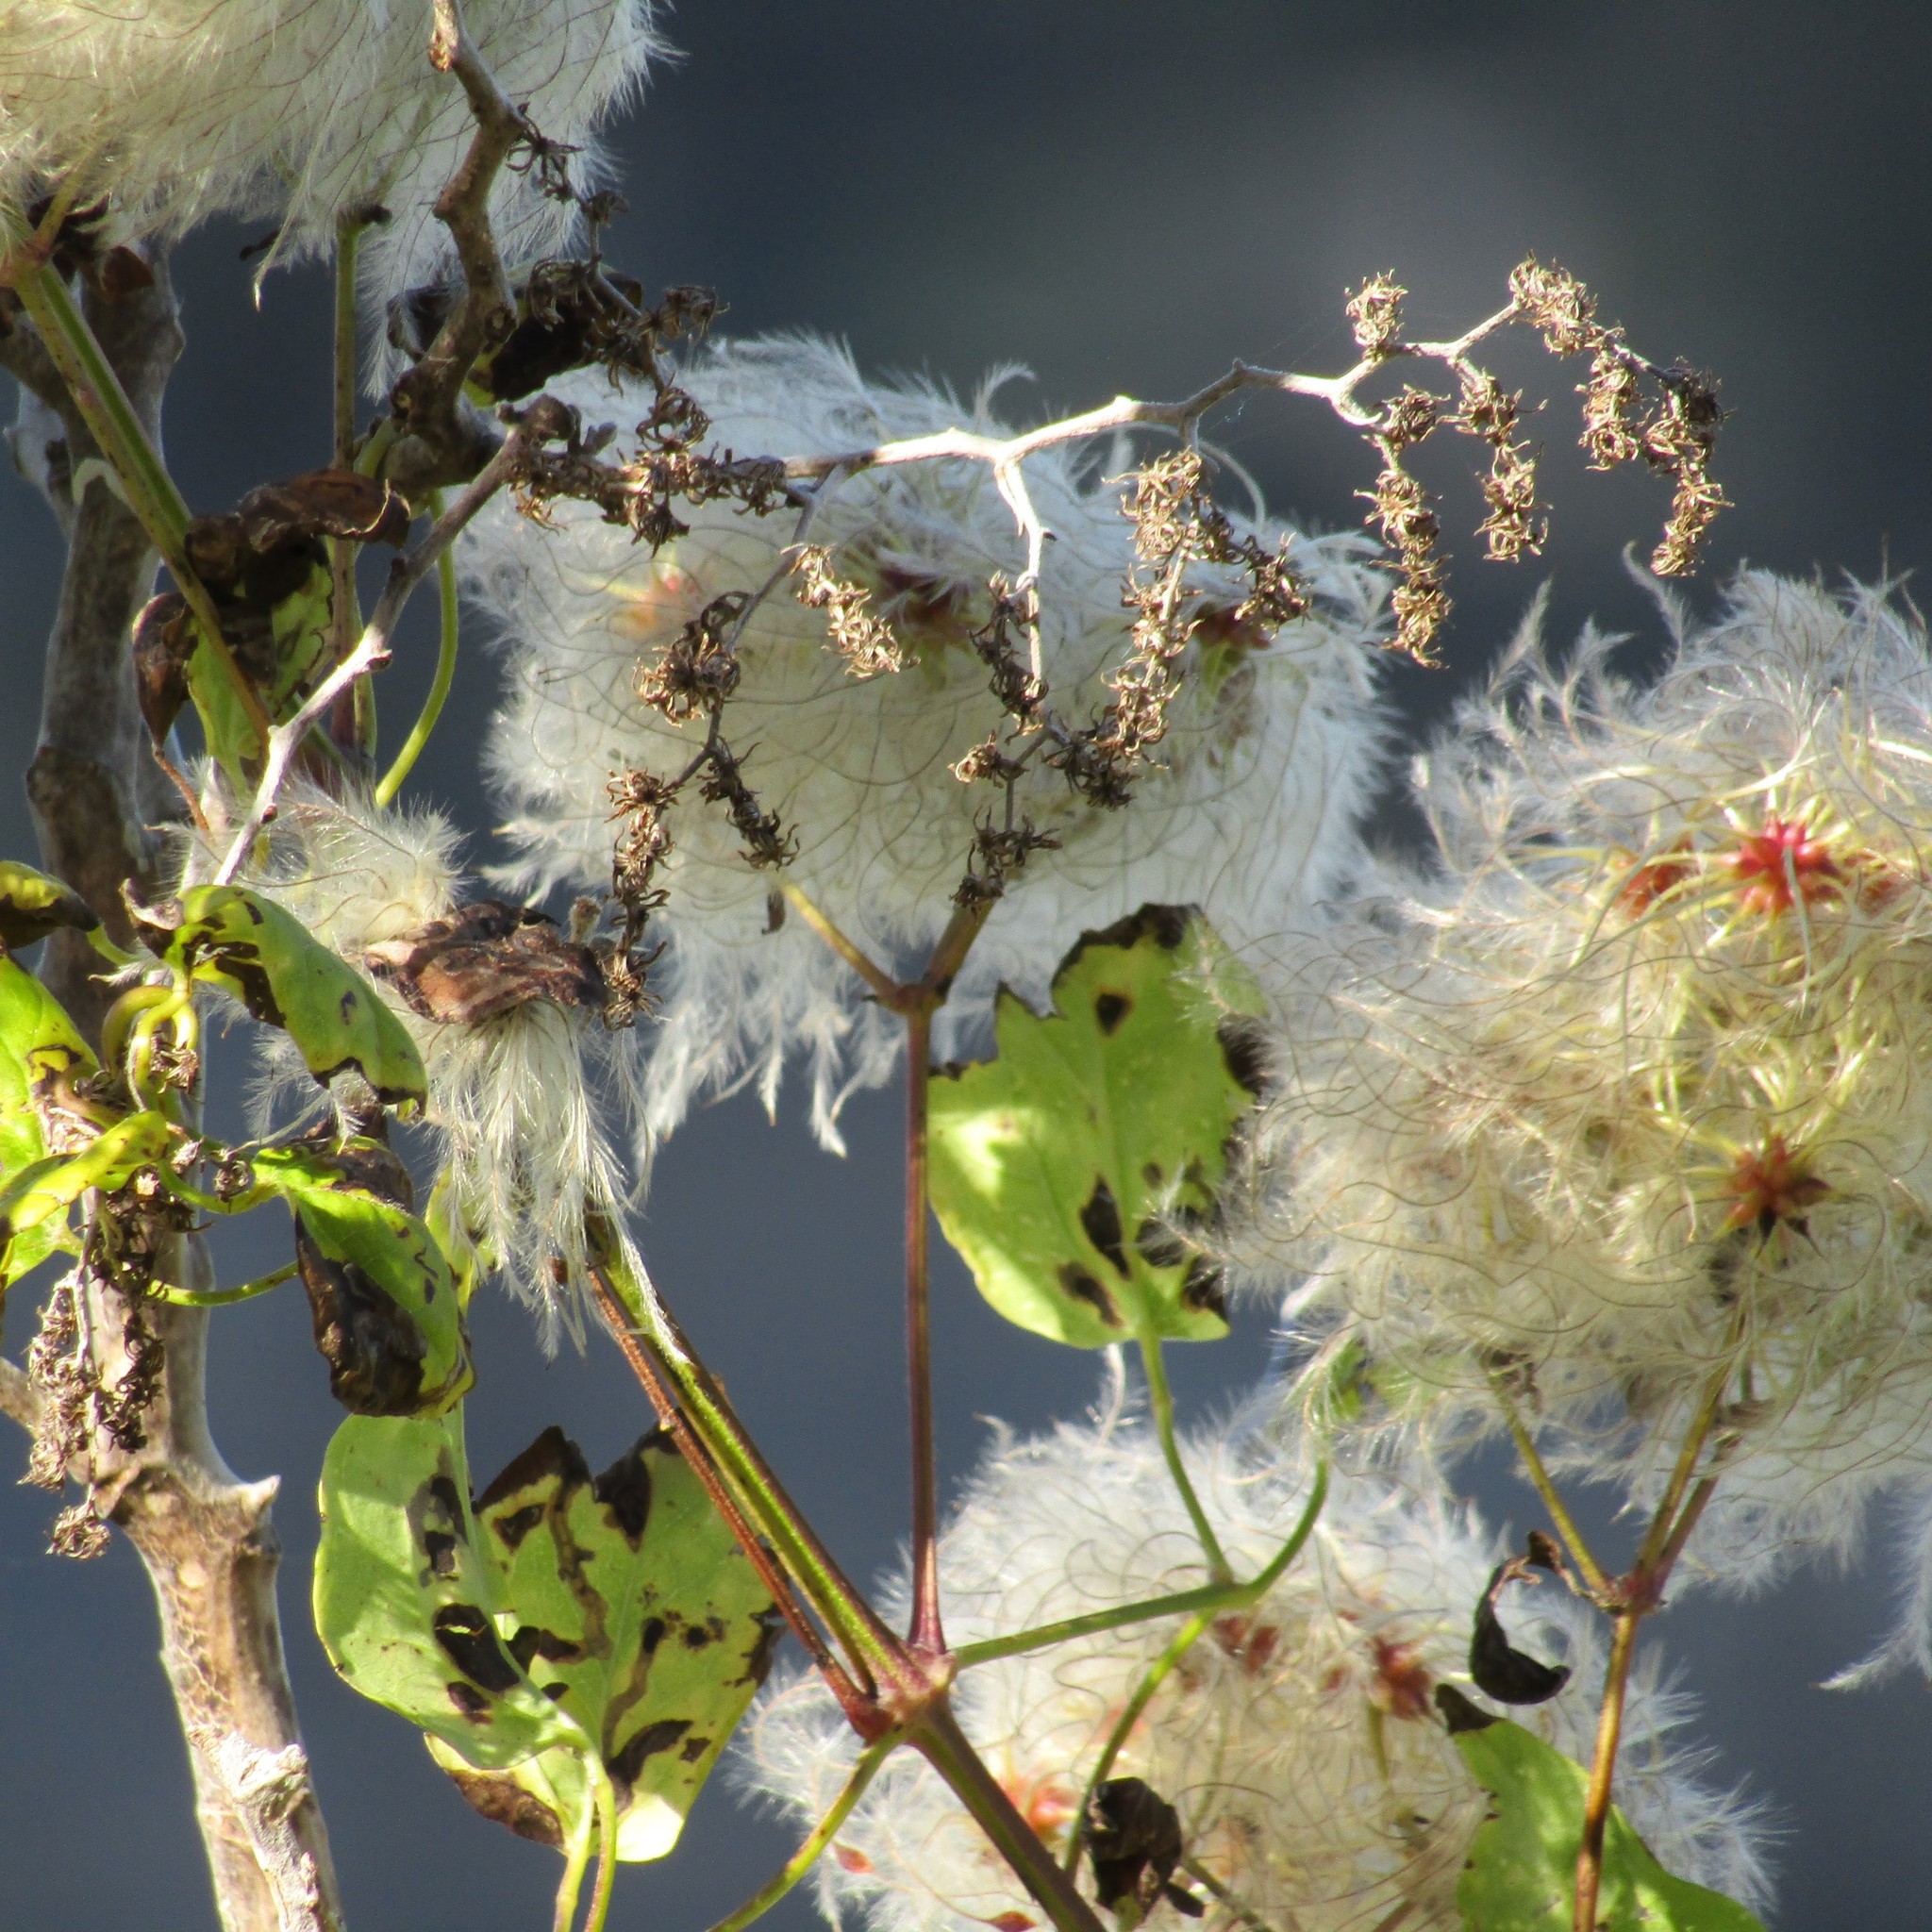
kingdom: Plantae
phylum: Tracheophyta
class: Magnoliopsida
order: Ranunculales
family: Ranunculaceae
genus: Clematis
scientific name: Clematis vitalba
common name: Evergreen clematis
